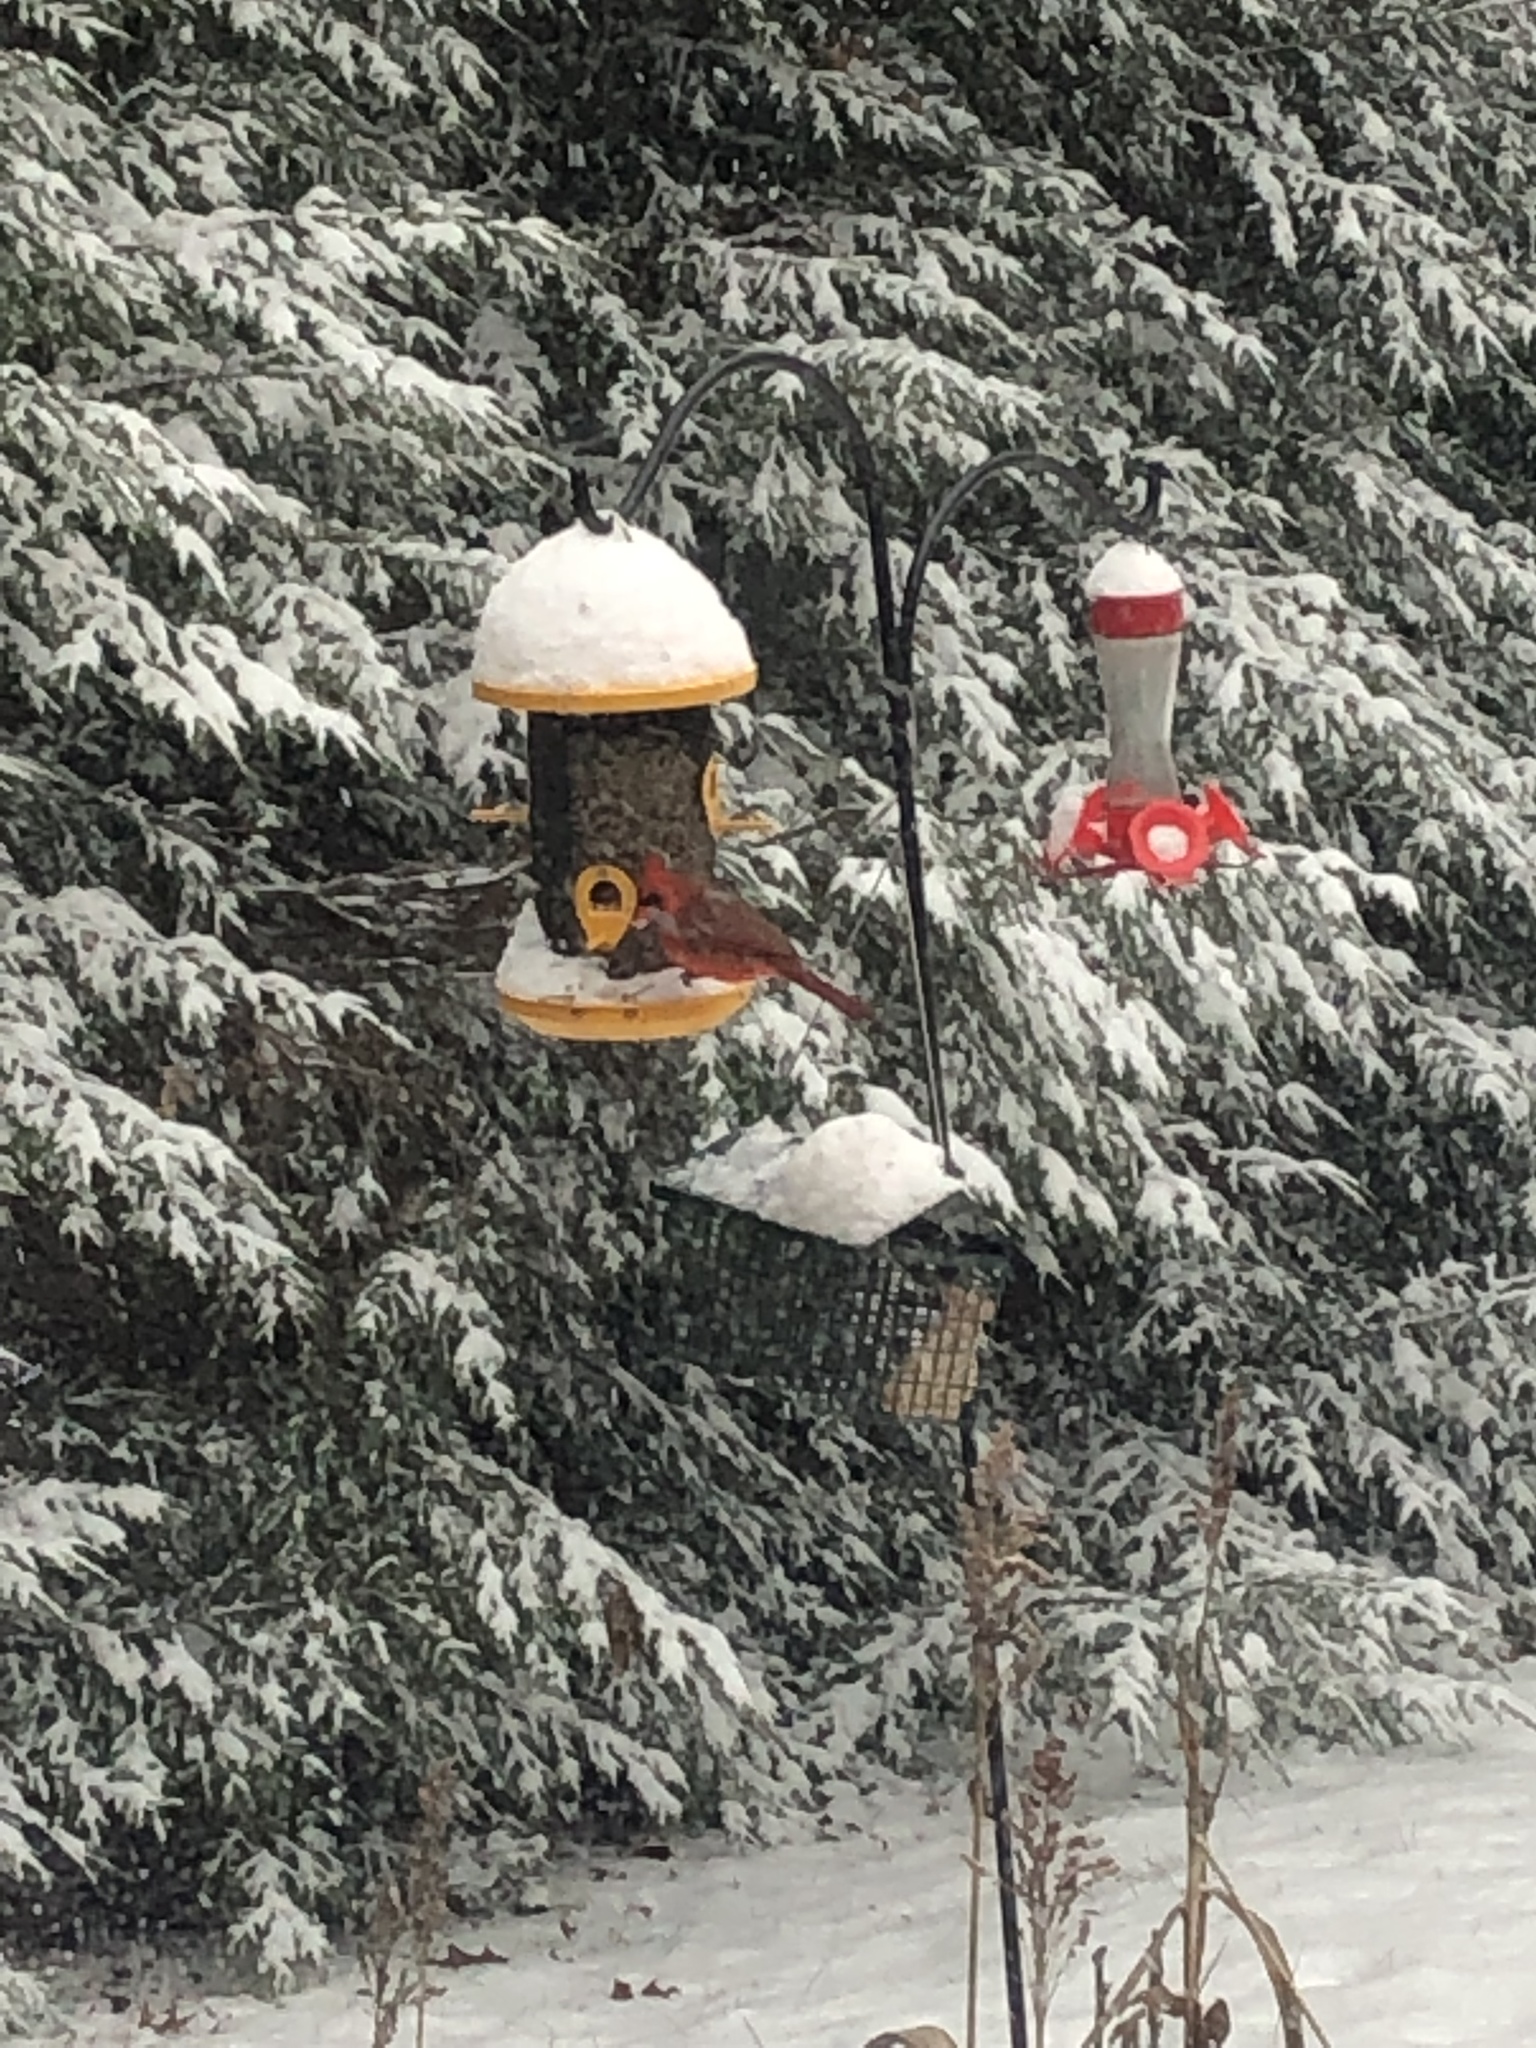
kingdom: Animalia
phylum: Chordata
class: Aves
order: Passeriformes
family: Cardinalidae
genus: Cardinalis
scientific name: Cardinalis cardinalis
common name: Northern cardinal
